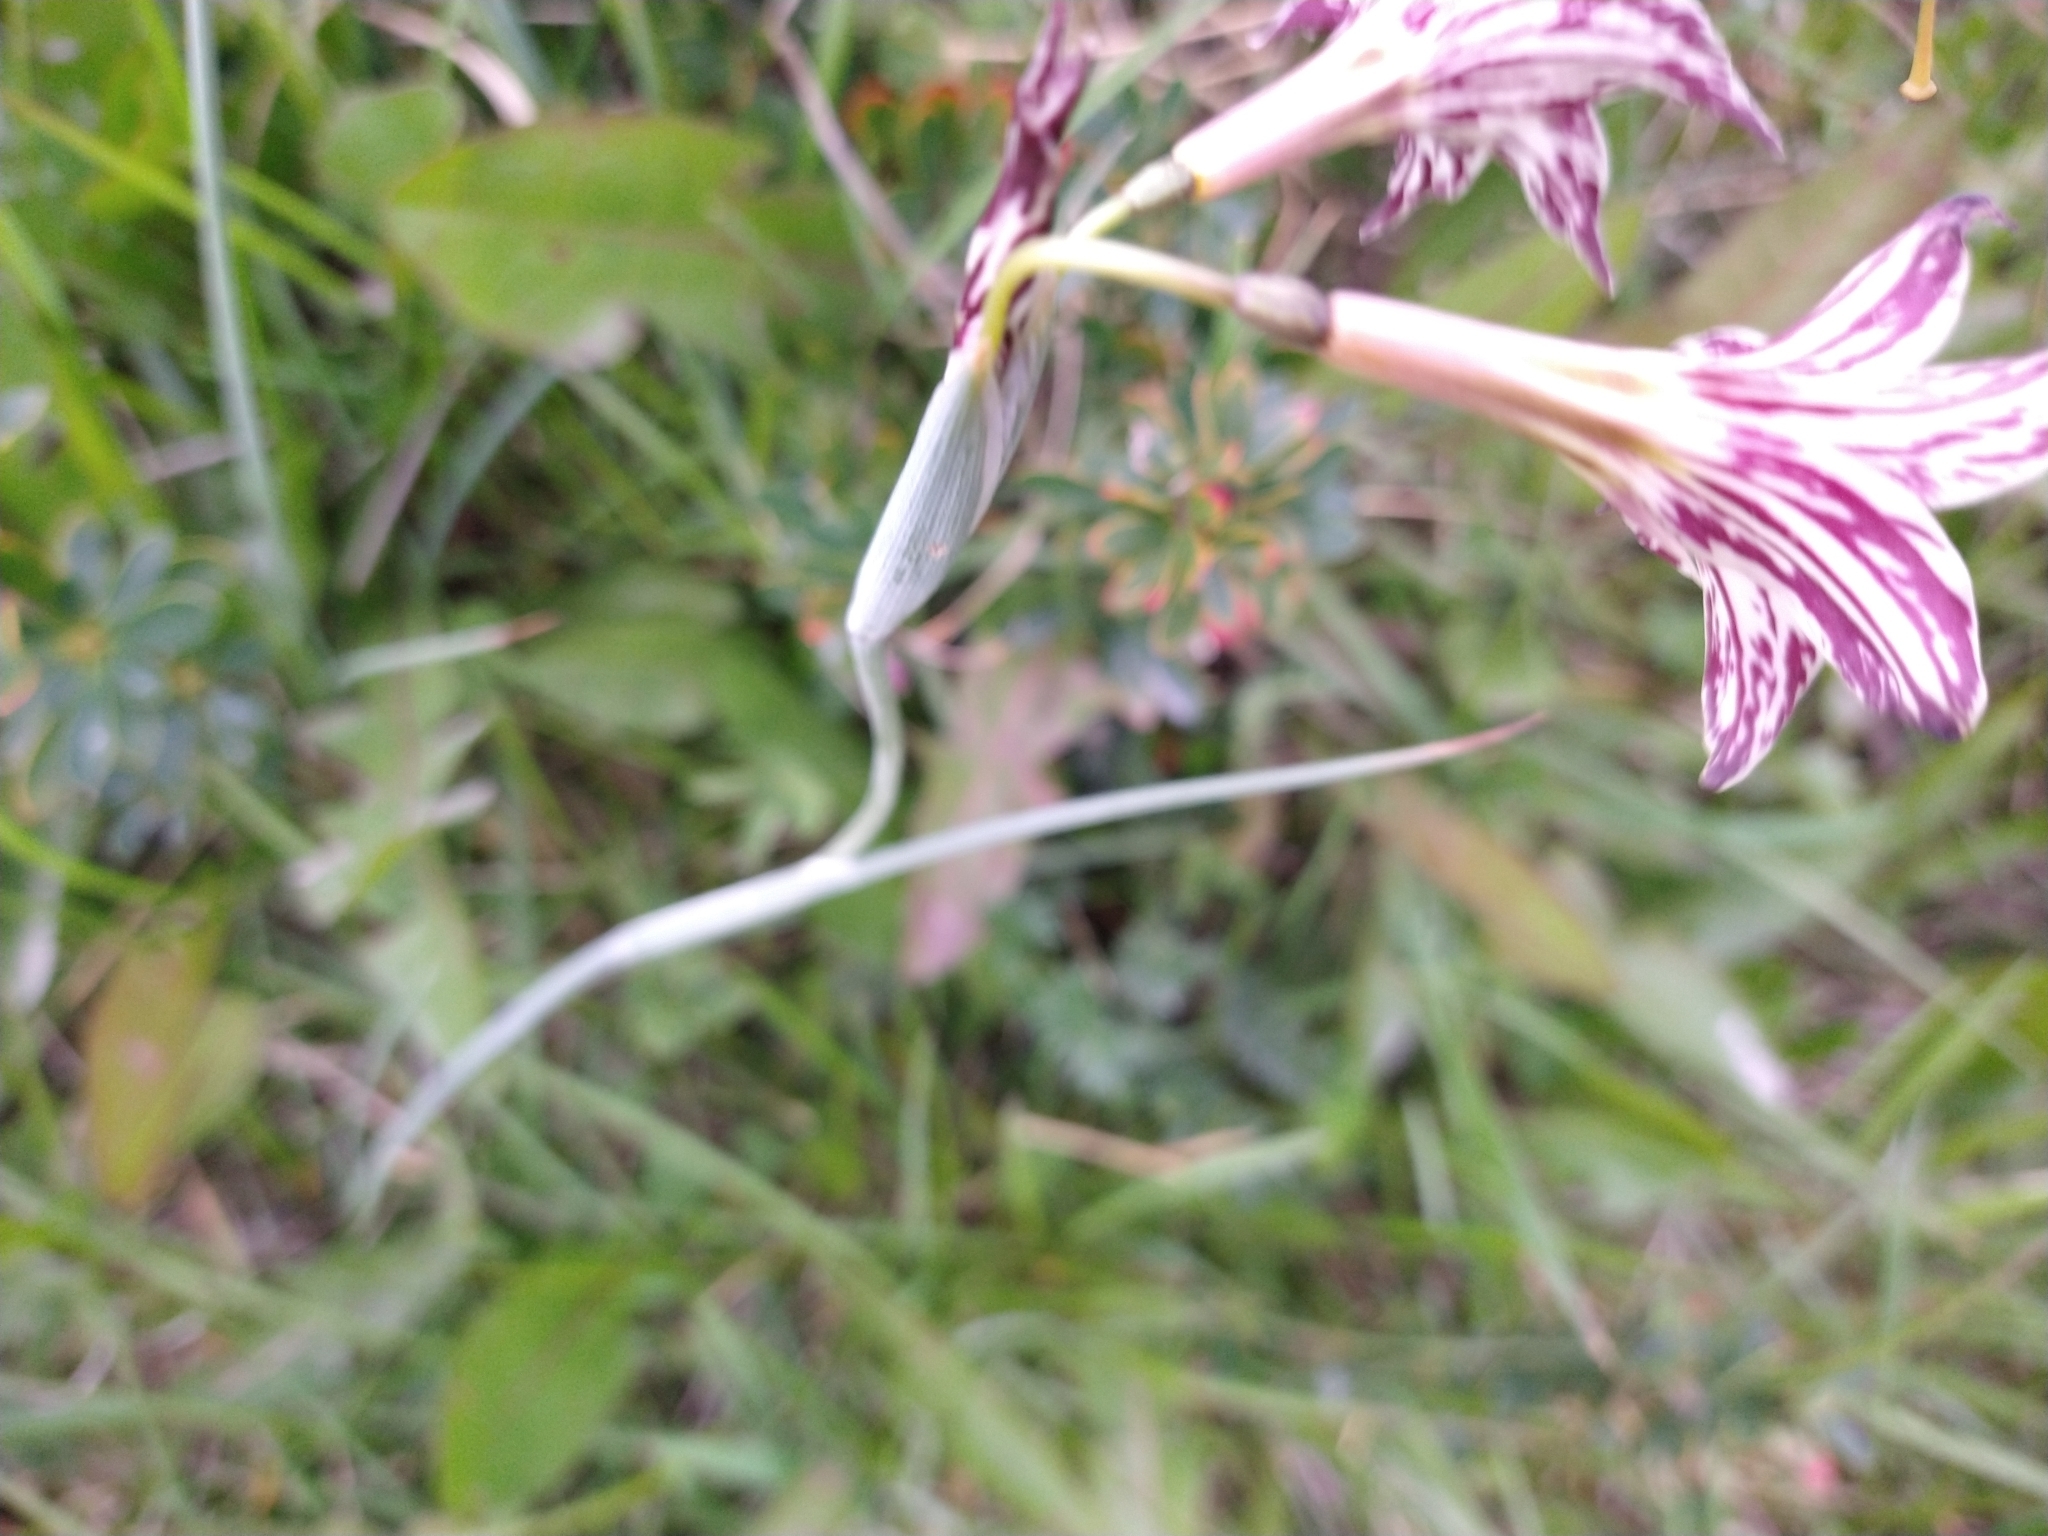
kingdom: Plantae
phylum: Tracheophyta
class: Liliopsida
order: Asparagales
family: Iridaceae
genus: Olsynium
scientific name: Olsynium biflorum
